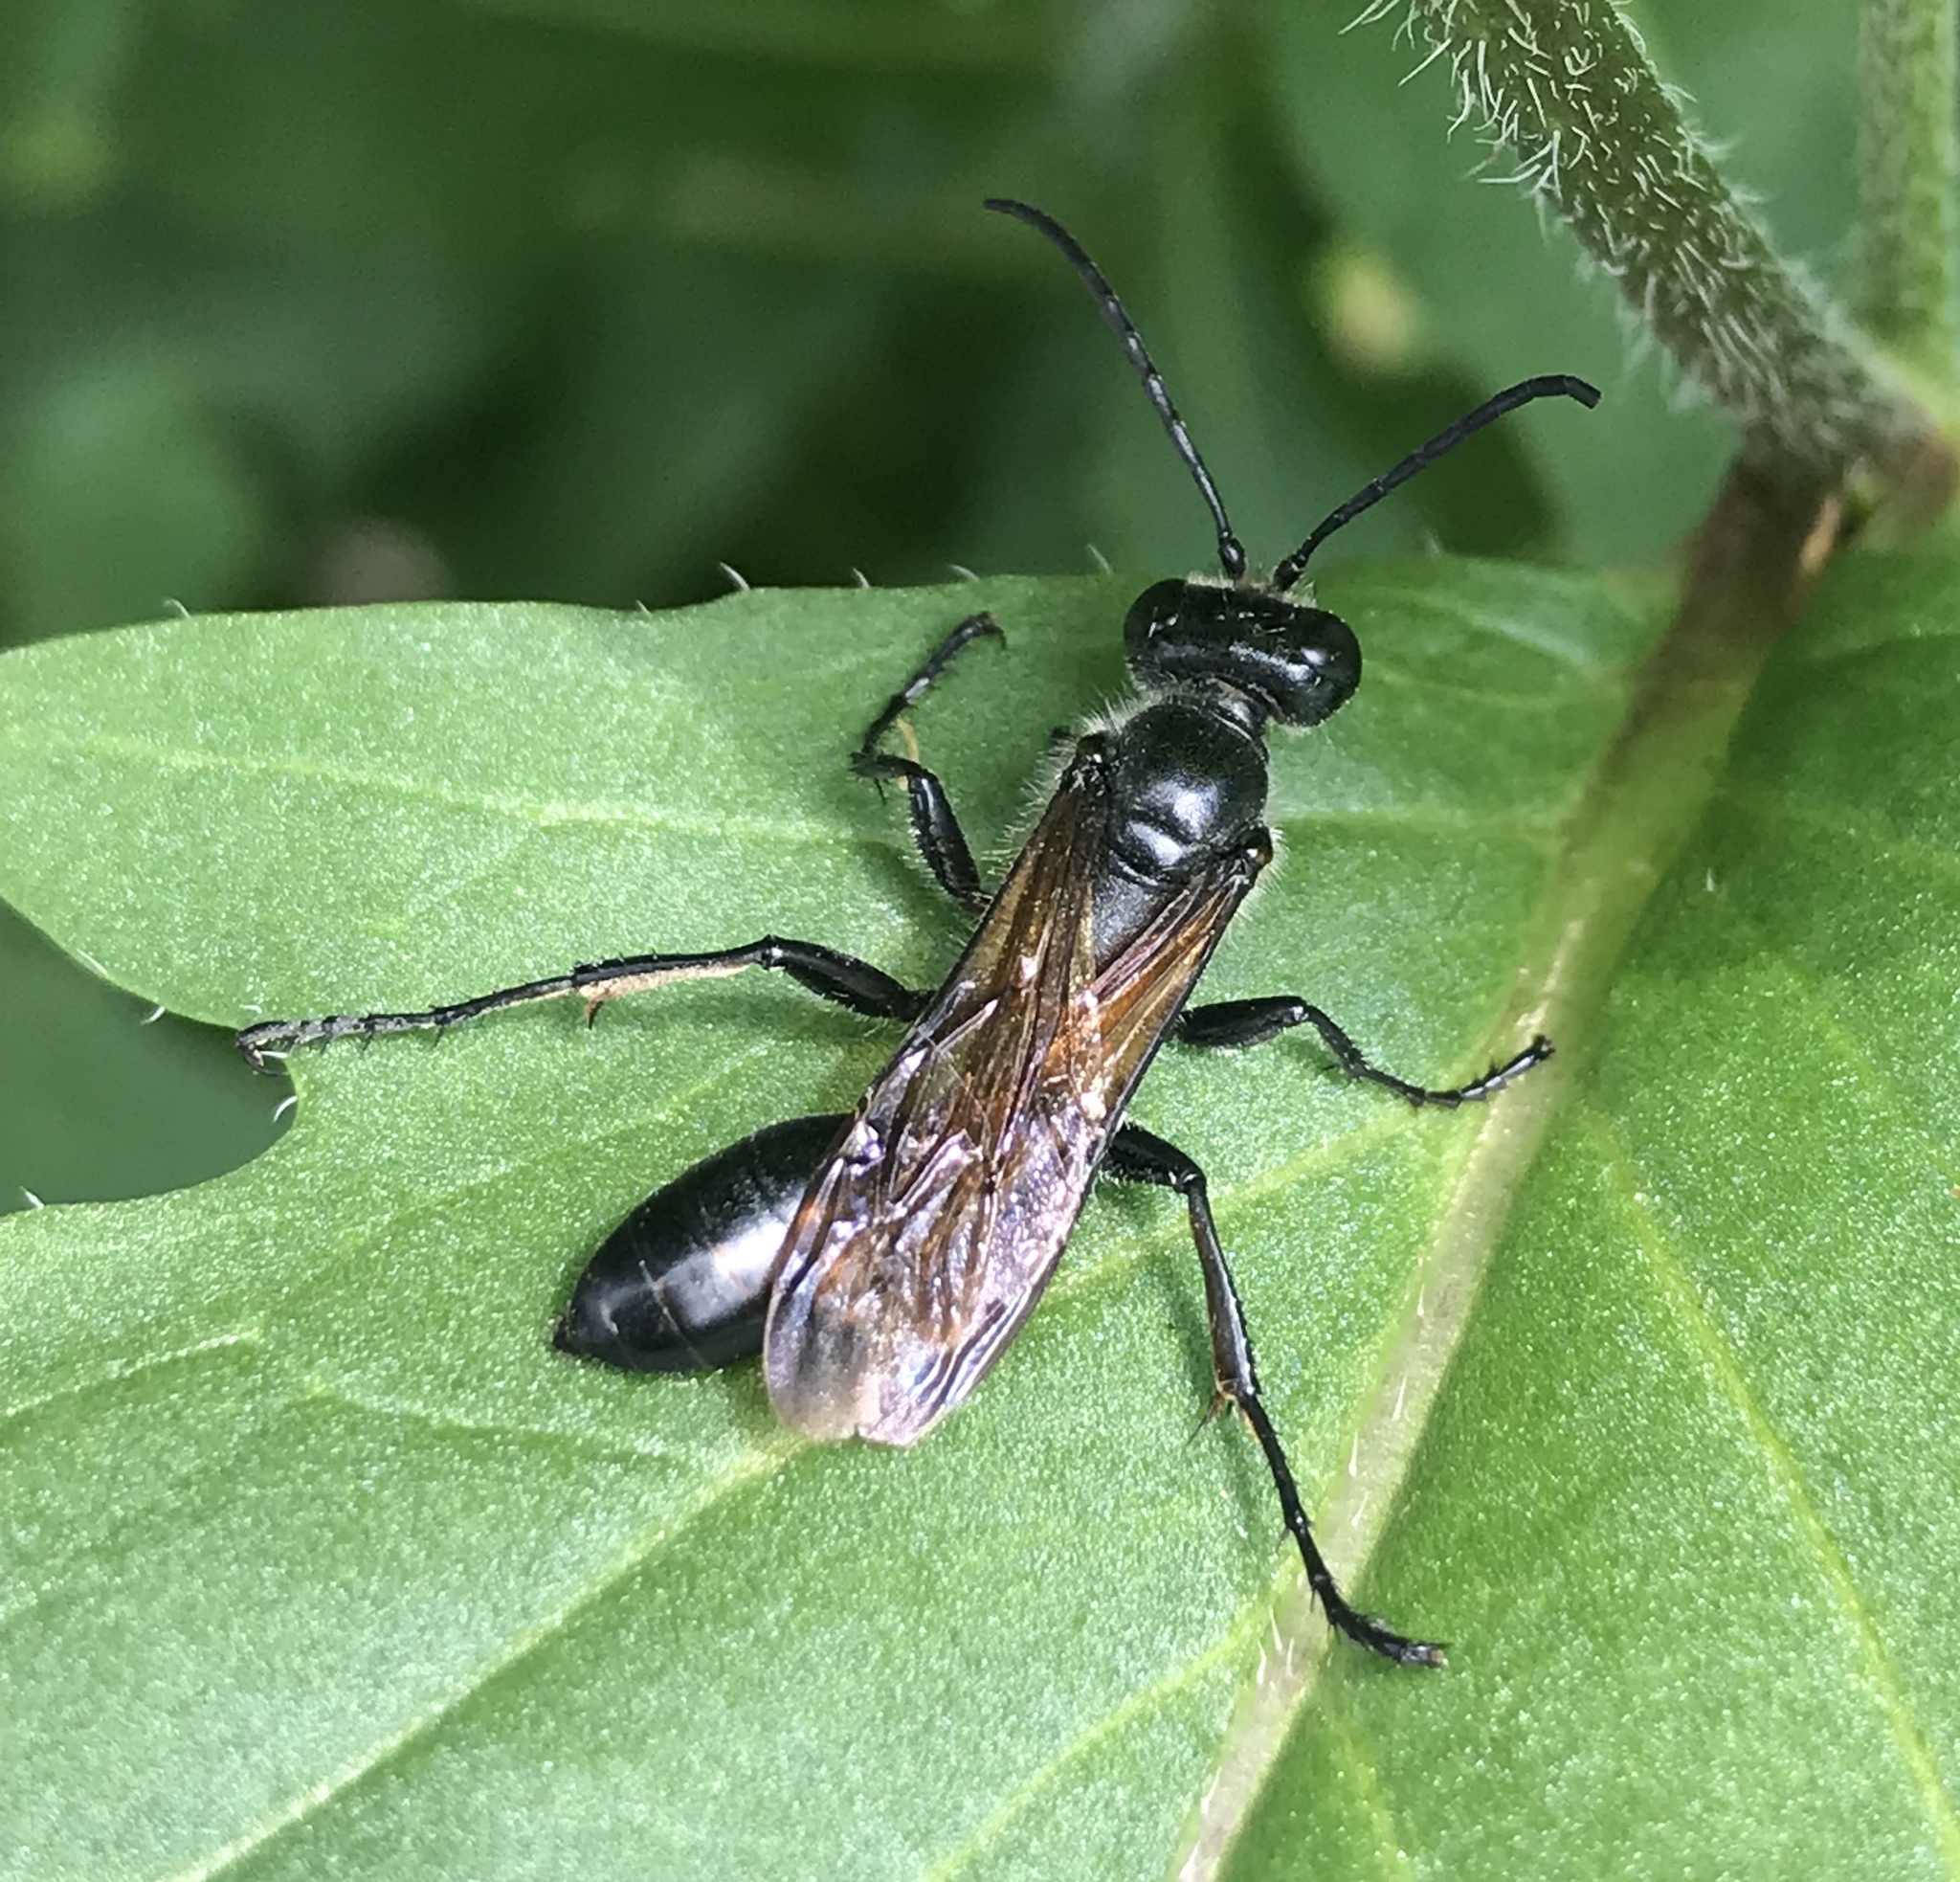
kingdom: Animalia
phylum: Arthropoda
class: Insecta
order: Hymenoptera
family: Sphecidae
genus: Isodontia
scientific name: Isodontia mexicana
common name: Mud dauber
